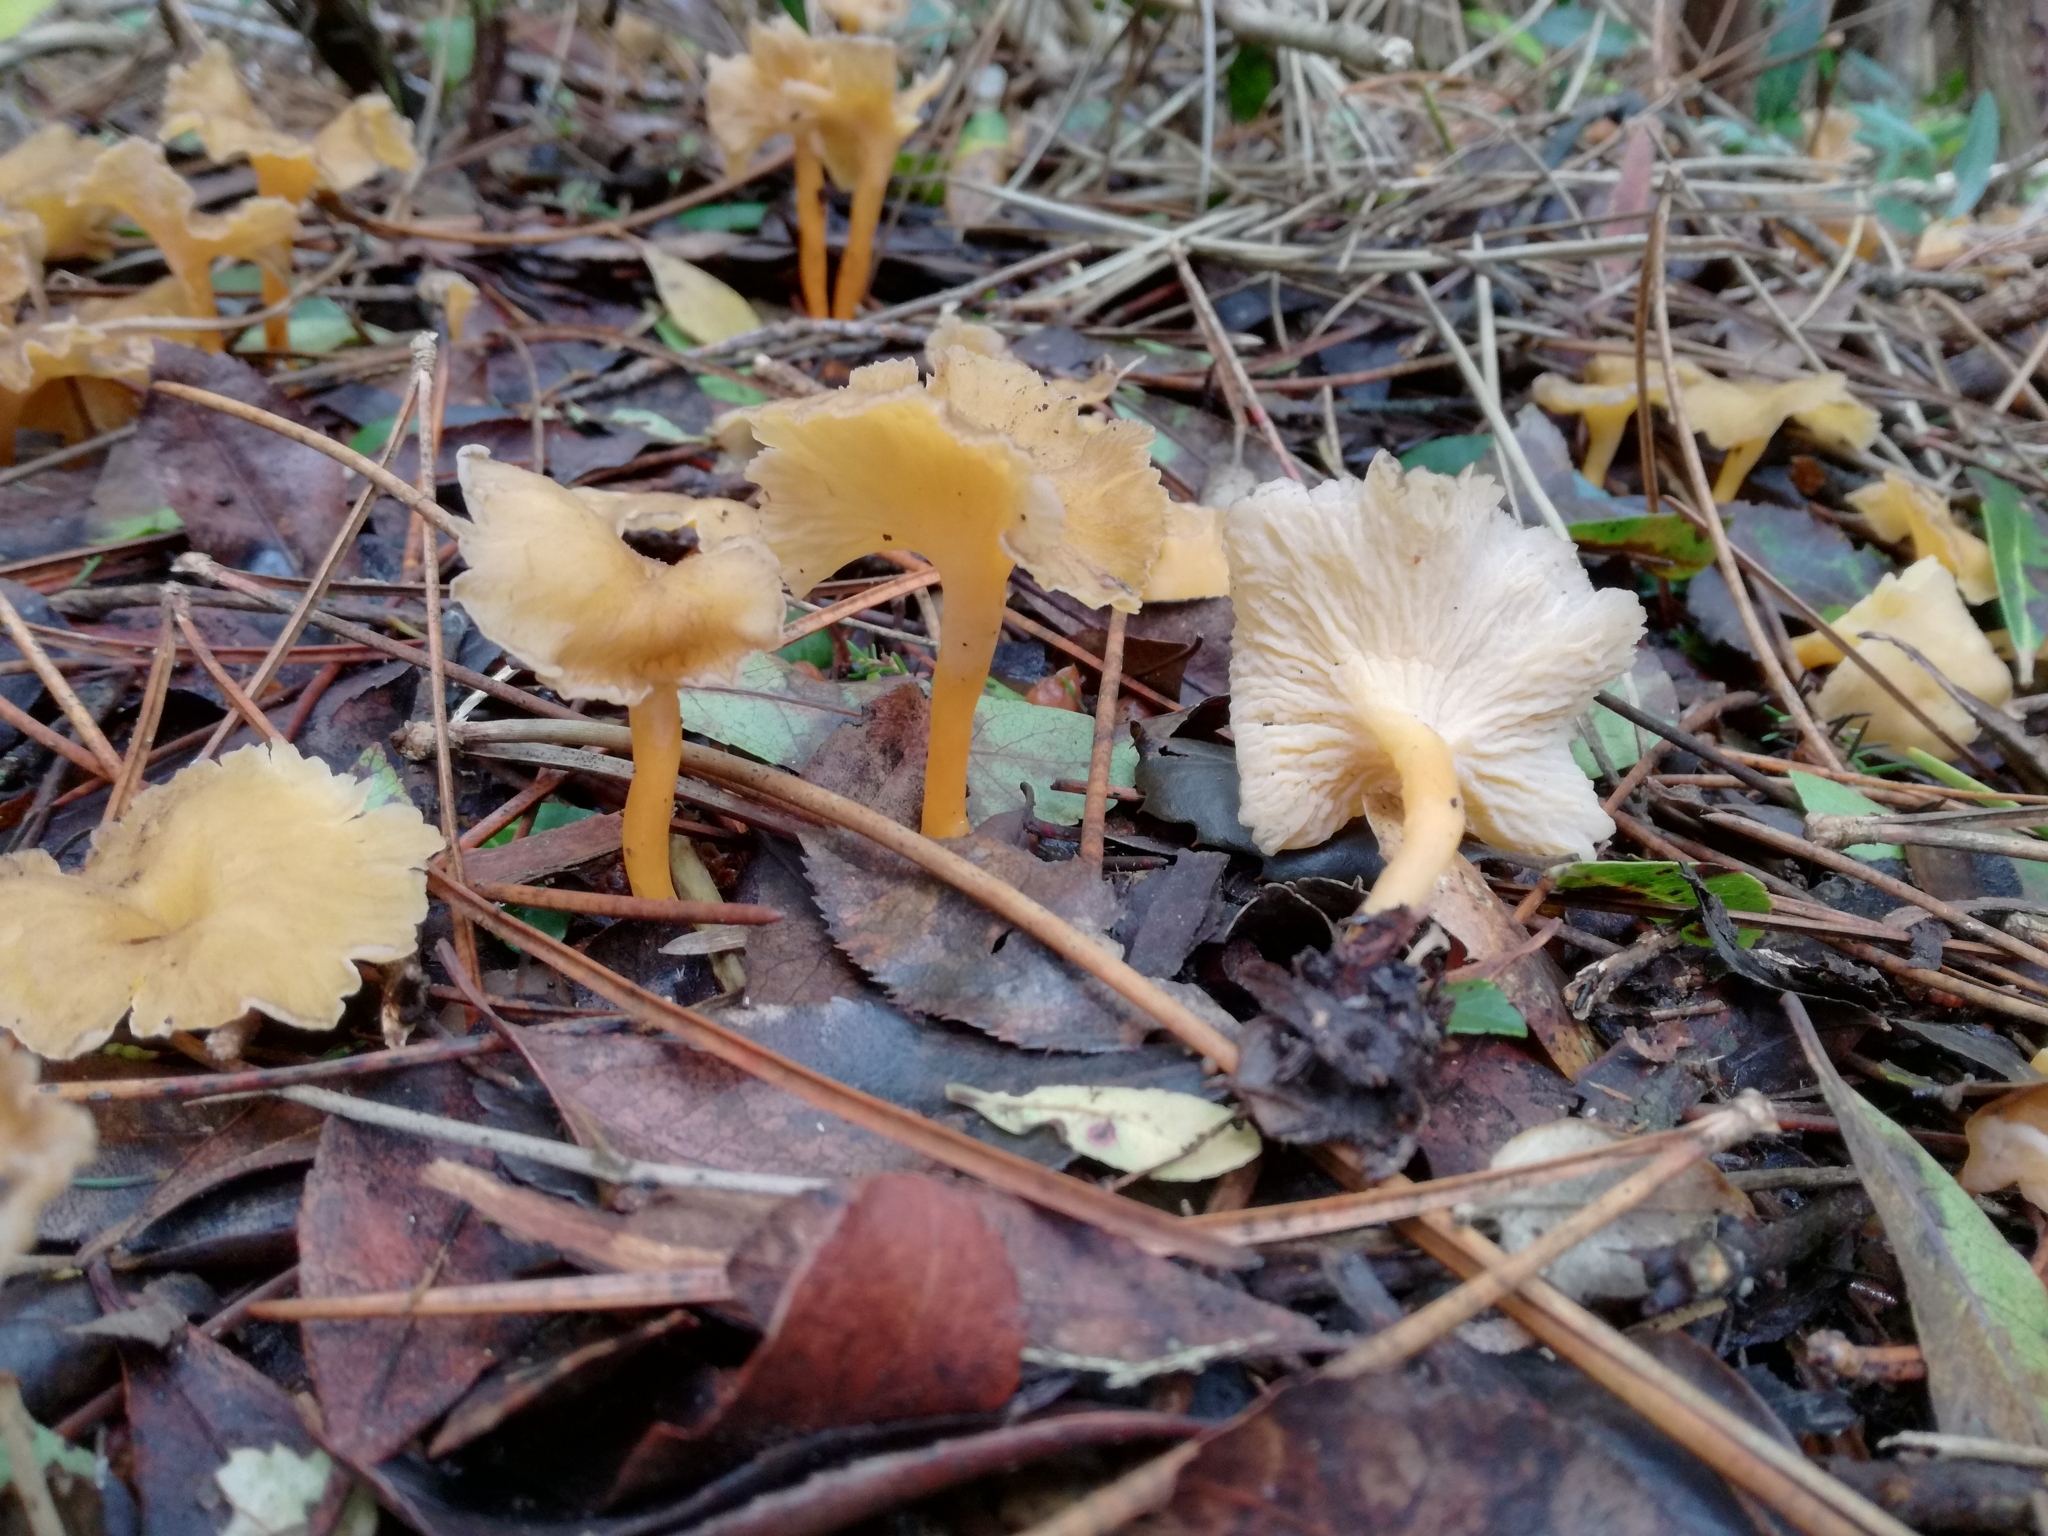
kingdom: Fungi
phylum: Basidiomycota
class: Agaricomycetes
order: Cantharellales
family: Hydnaceae
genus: Craterellus
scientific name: Craterellus lutescens
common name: Golden chanterelle
